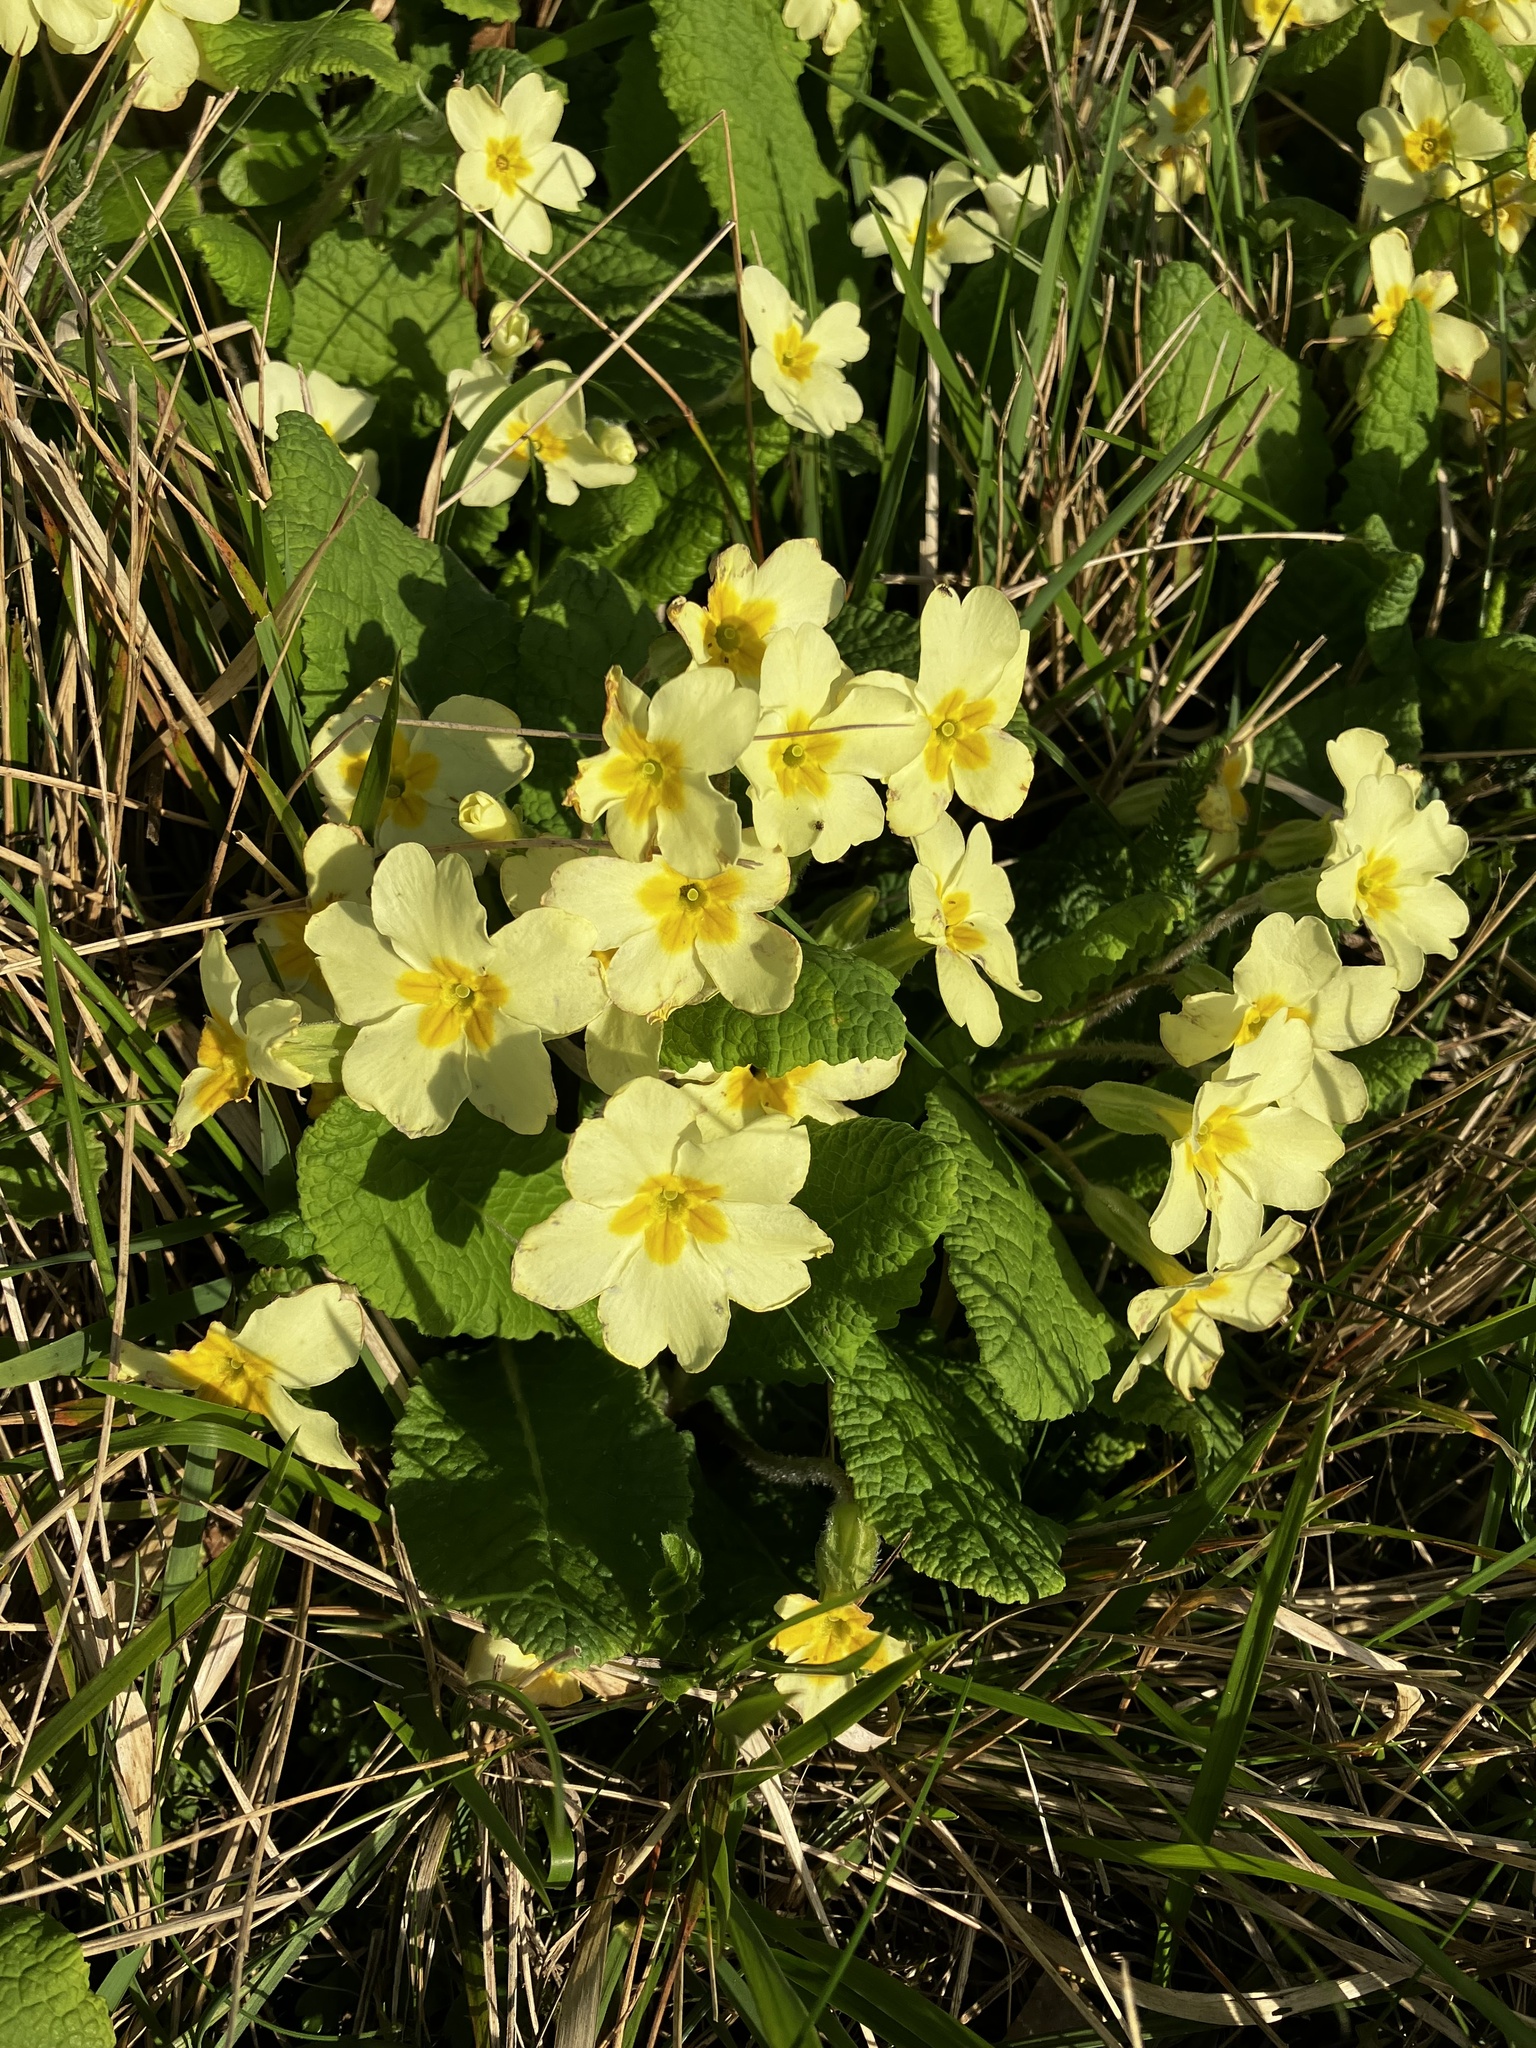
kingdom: Plantae
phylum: Tracheophyta
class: Magnoliopsida
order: Ericales
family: Primulaceae
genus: Primula
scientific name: Primula vulgaris
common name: Primrose
